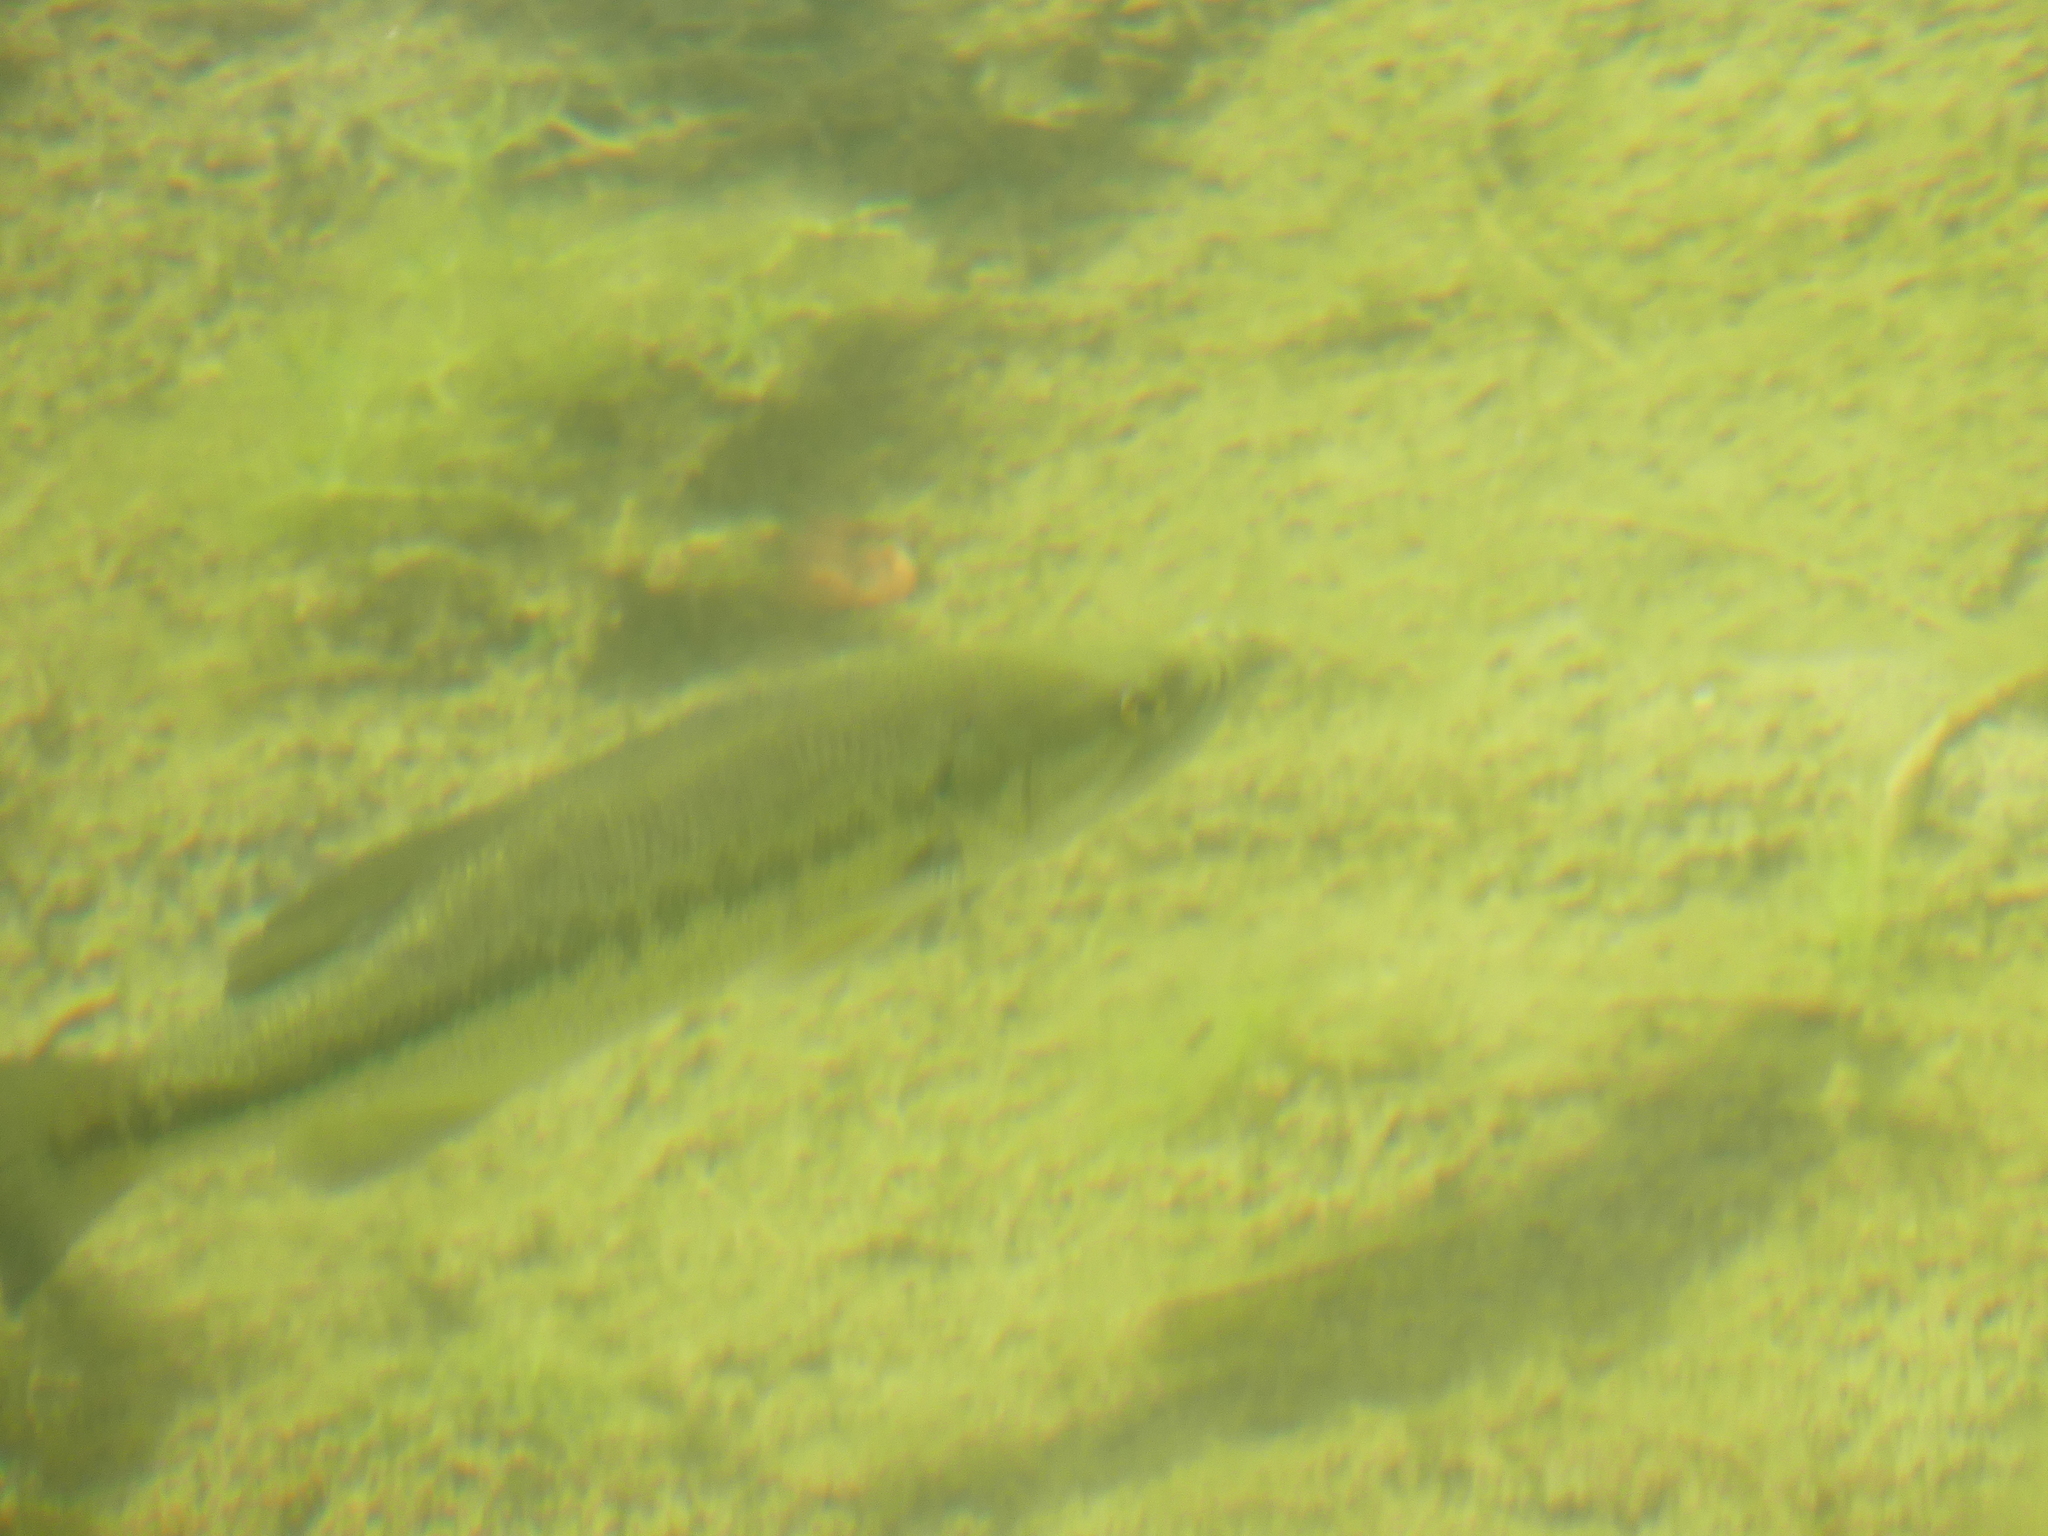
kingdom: Animalia
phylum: Chordata
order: Perciformes
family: Centrarchidae
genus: Micropterus
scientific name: Micropterus
